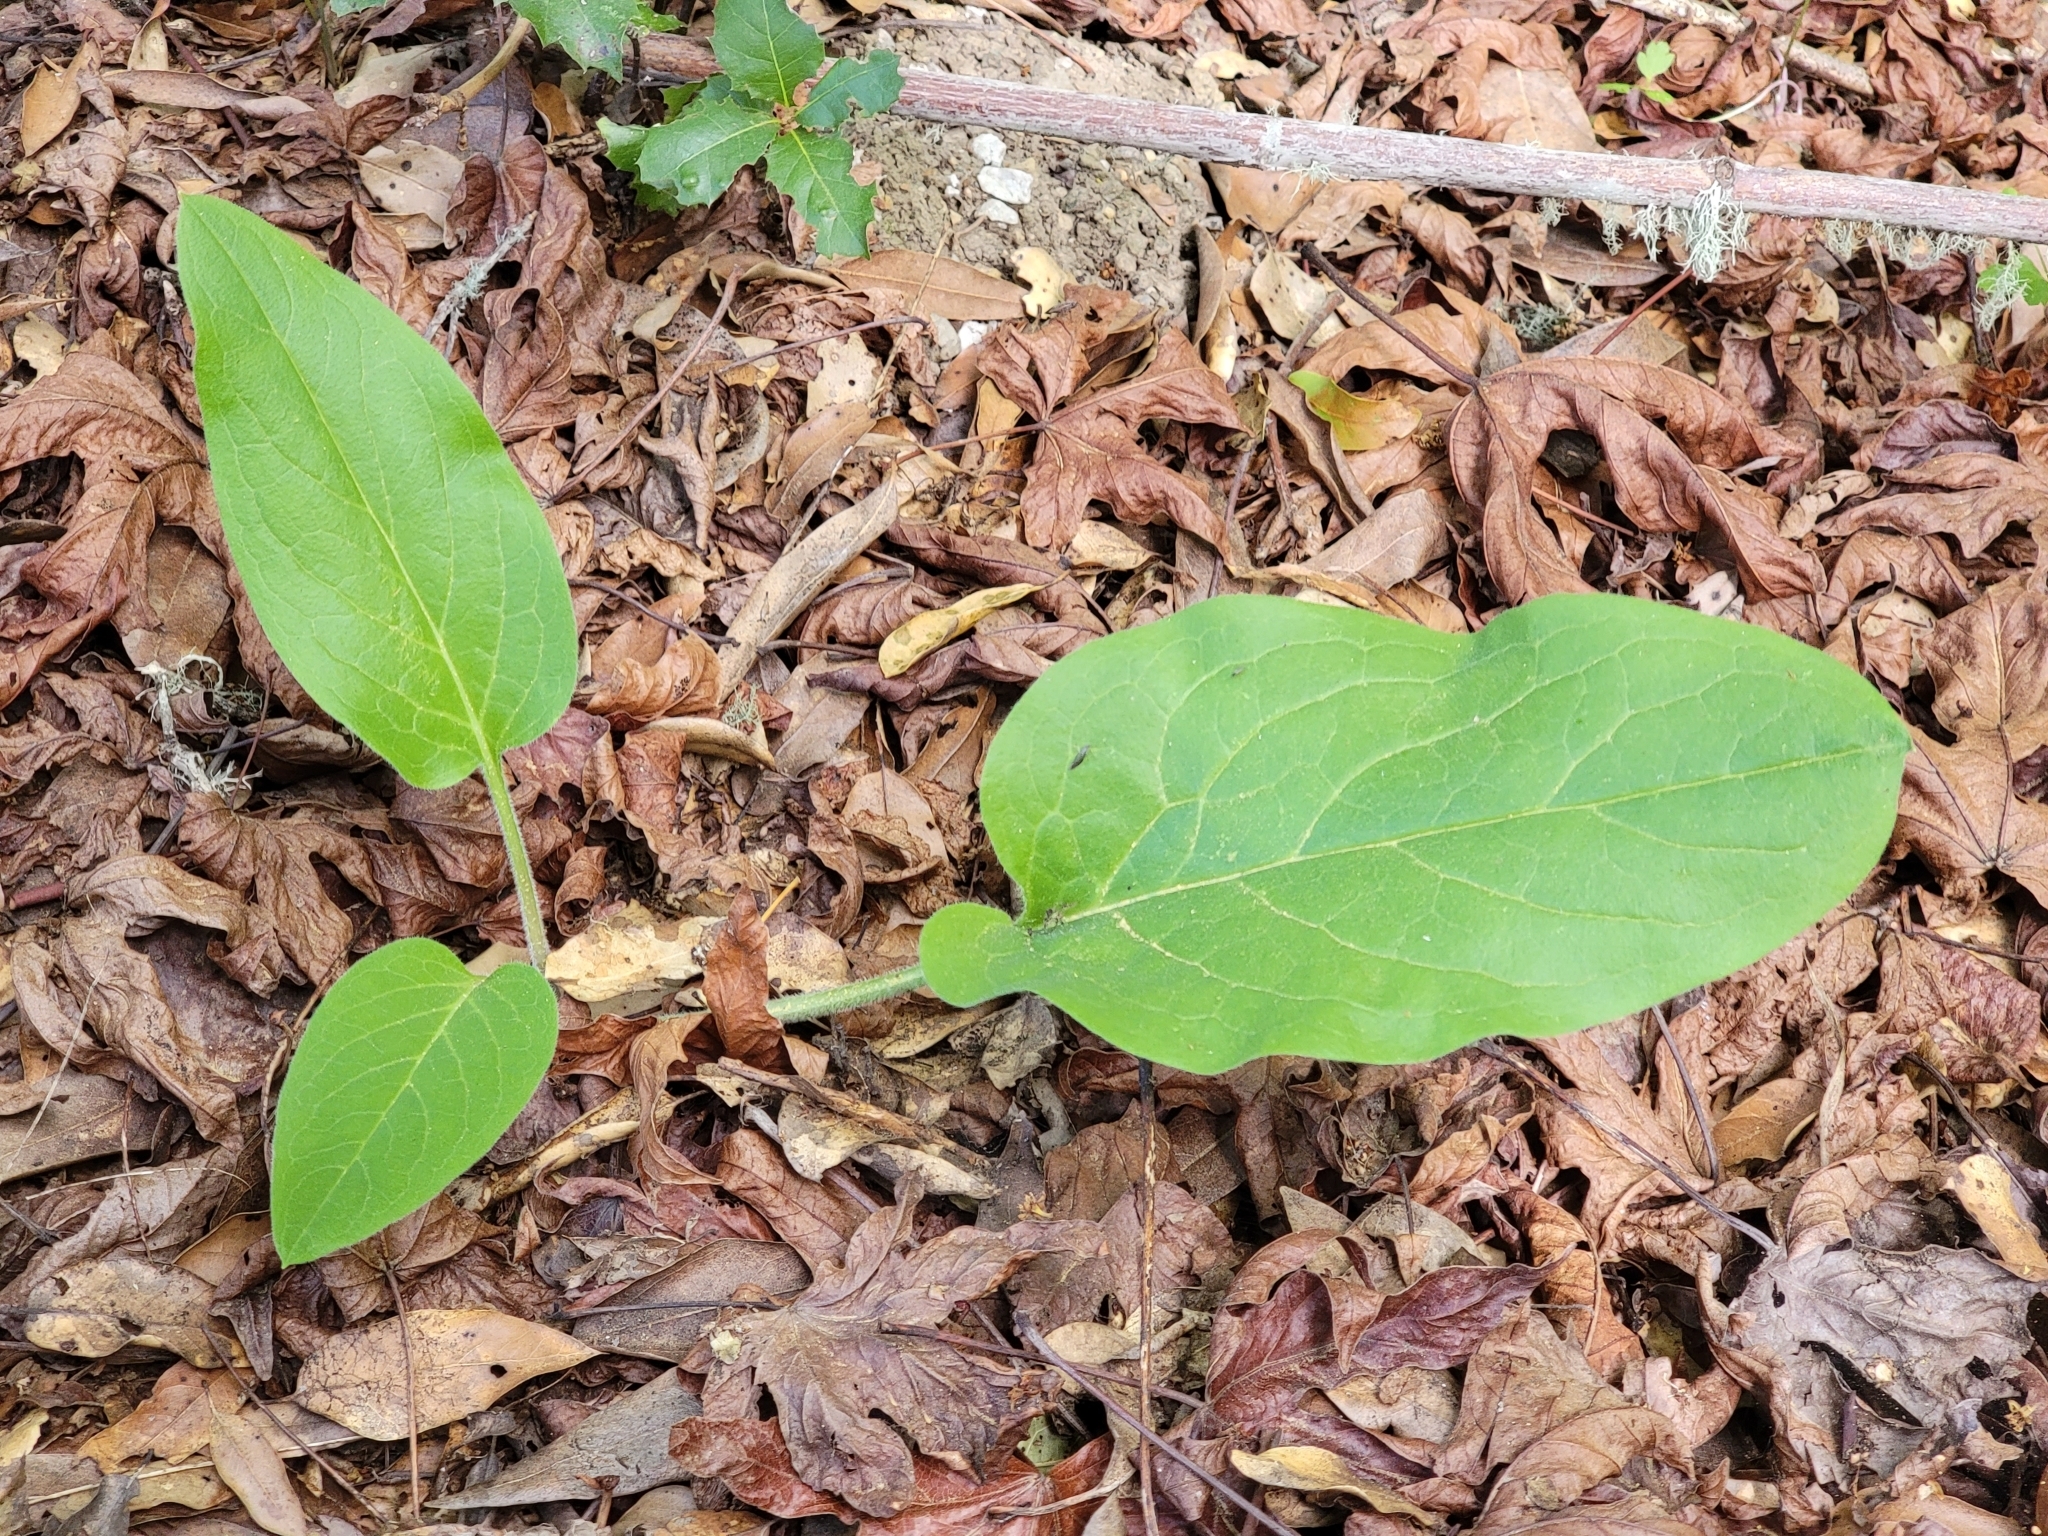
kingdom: Plantae
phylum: Tracheophyta
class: Magnoliopsida
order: Boraginales
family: Boraginaceae
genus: Adelinia
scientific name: Adelinia grande
